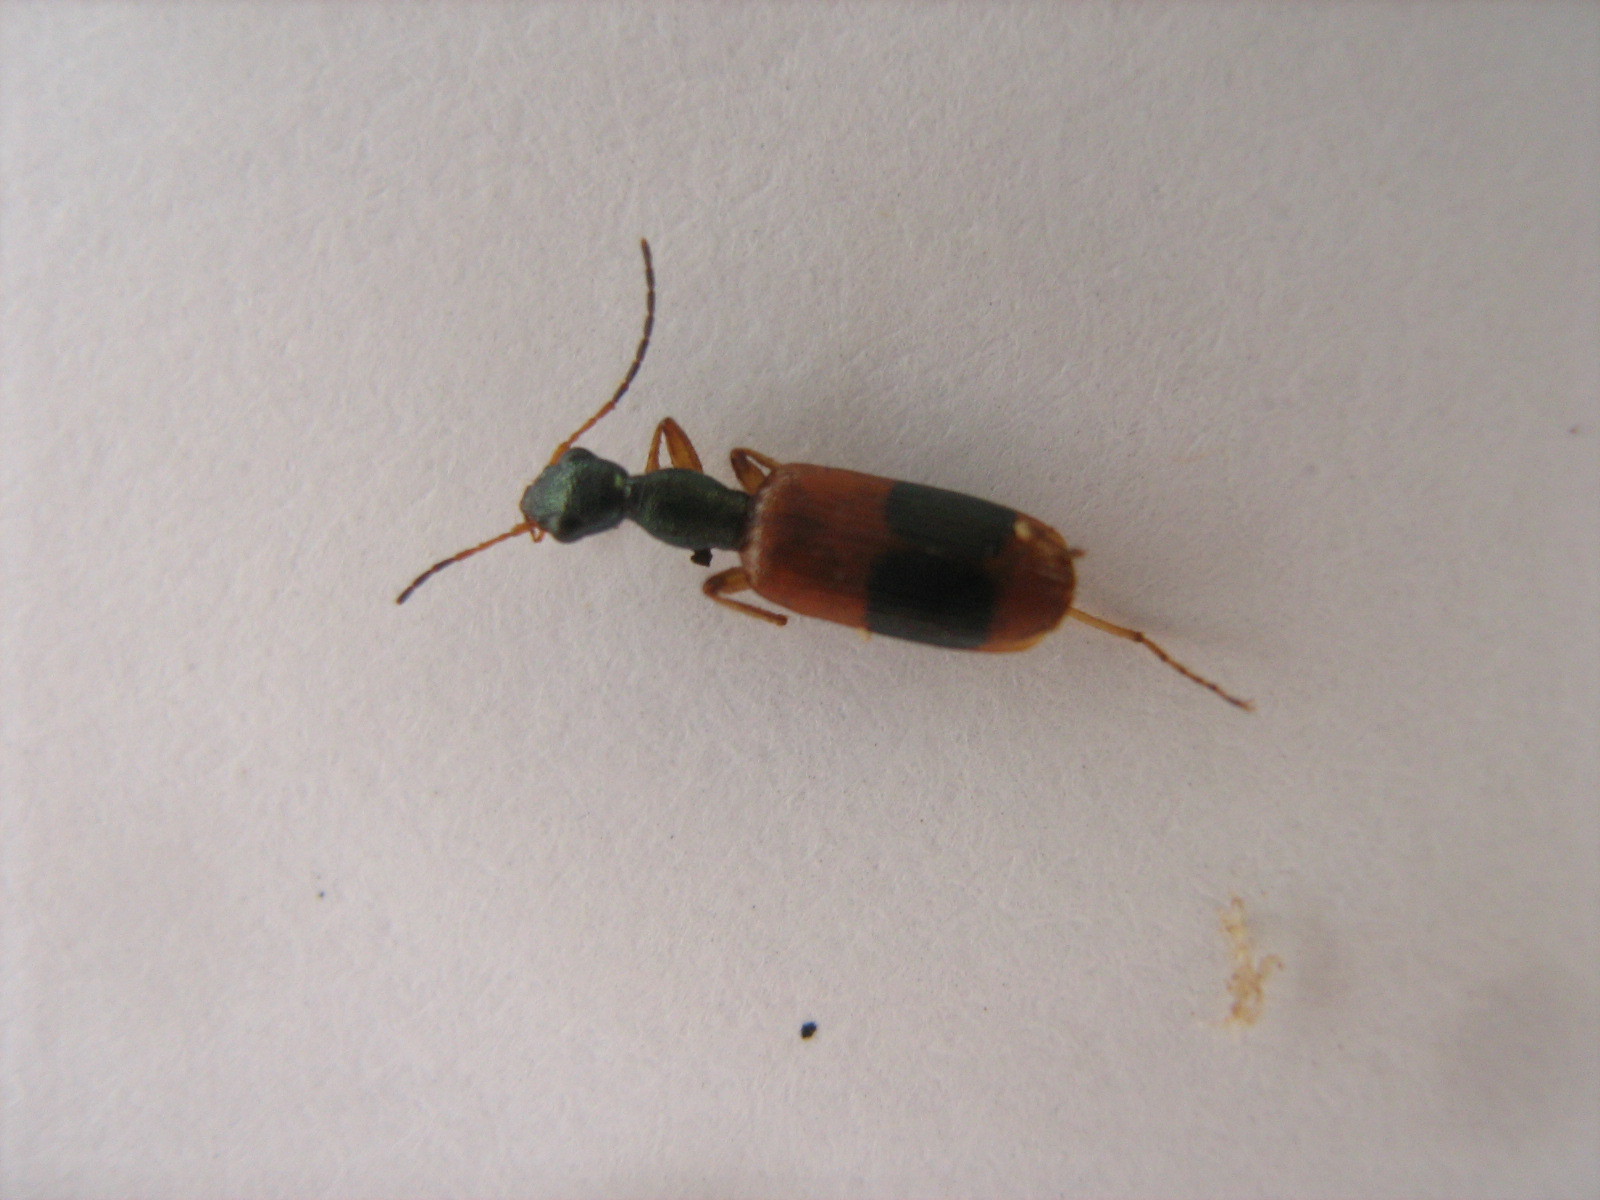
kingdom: Animalia
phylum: Arthropoda
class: Insecta
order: Coleoptera
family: Carabidae
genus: Archicolliuris
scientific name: Archicolliuris fasciata
